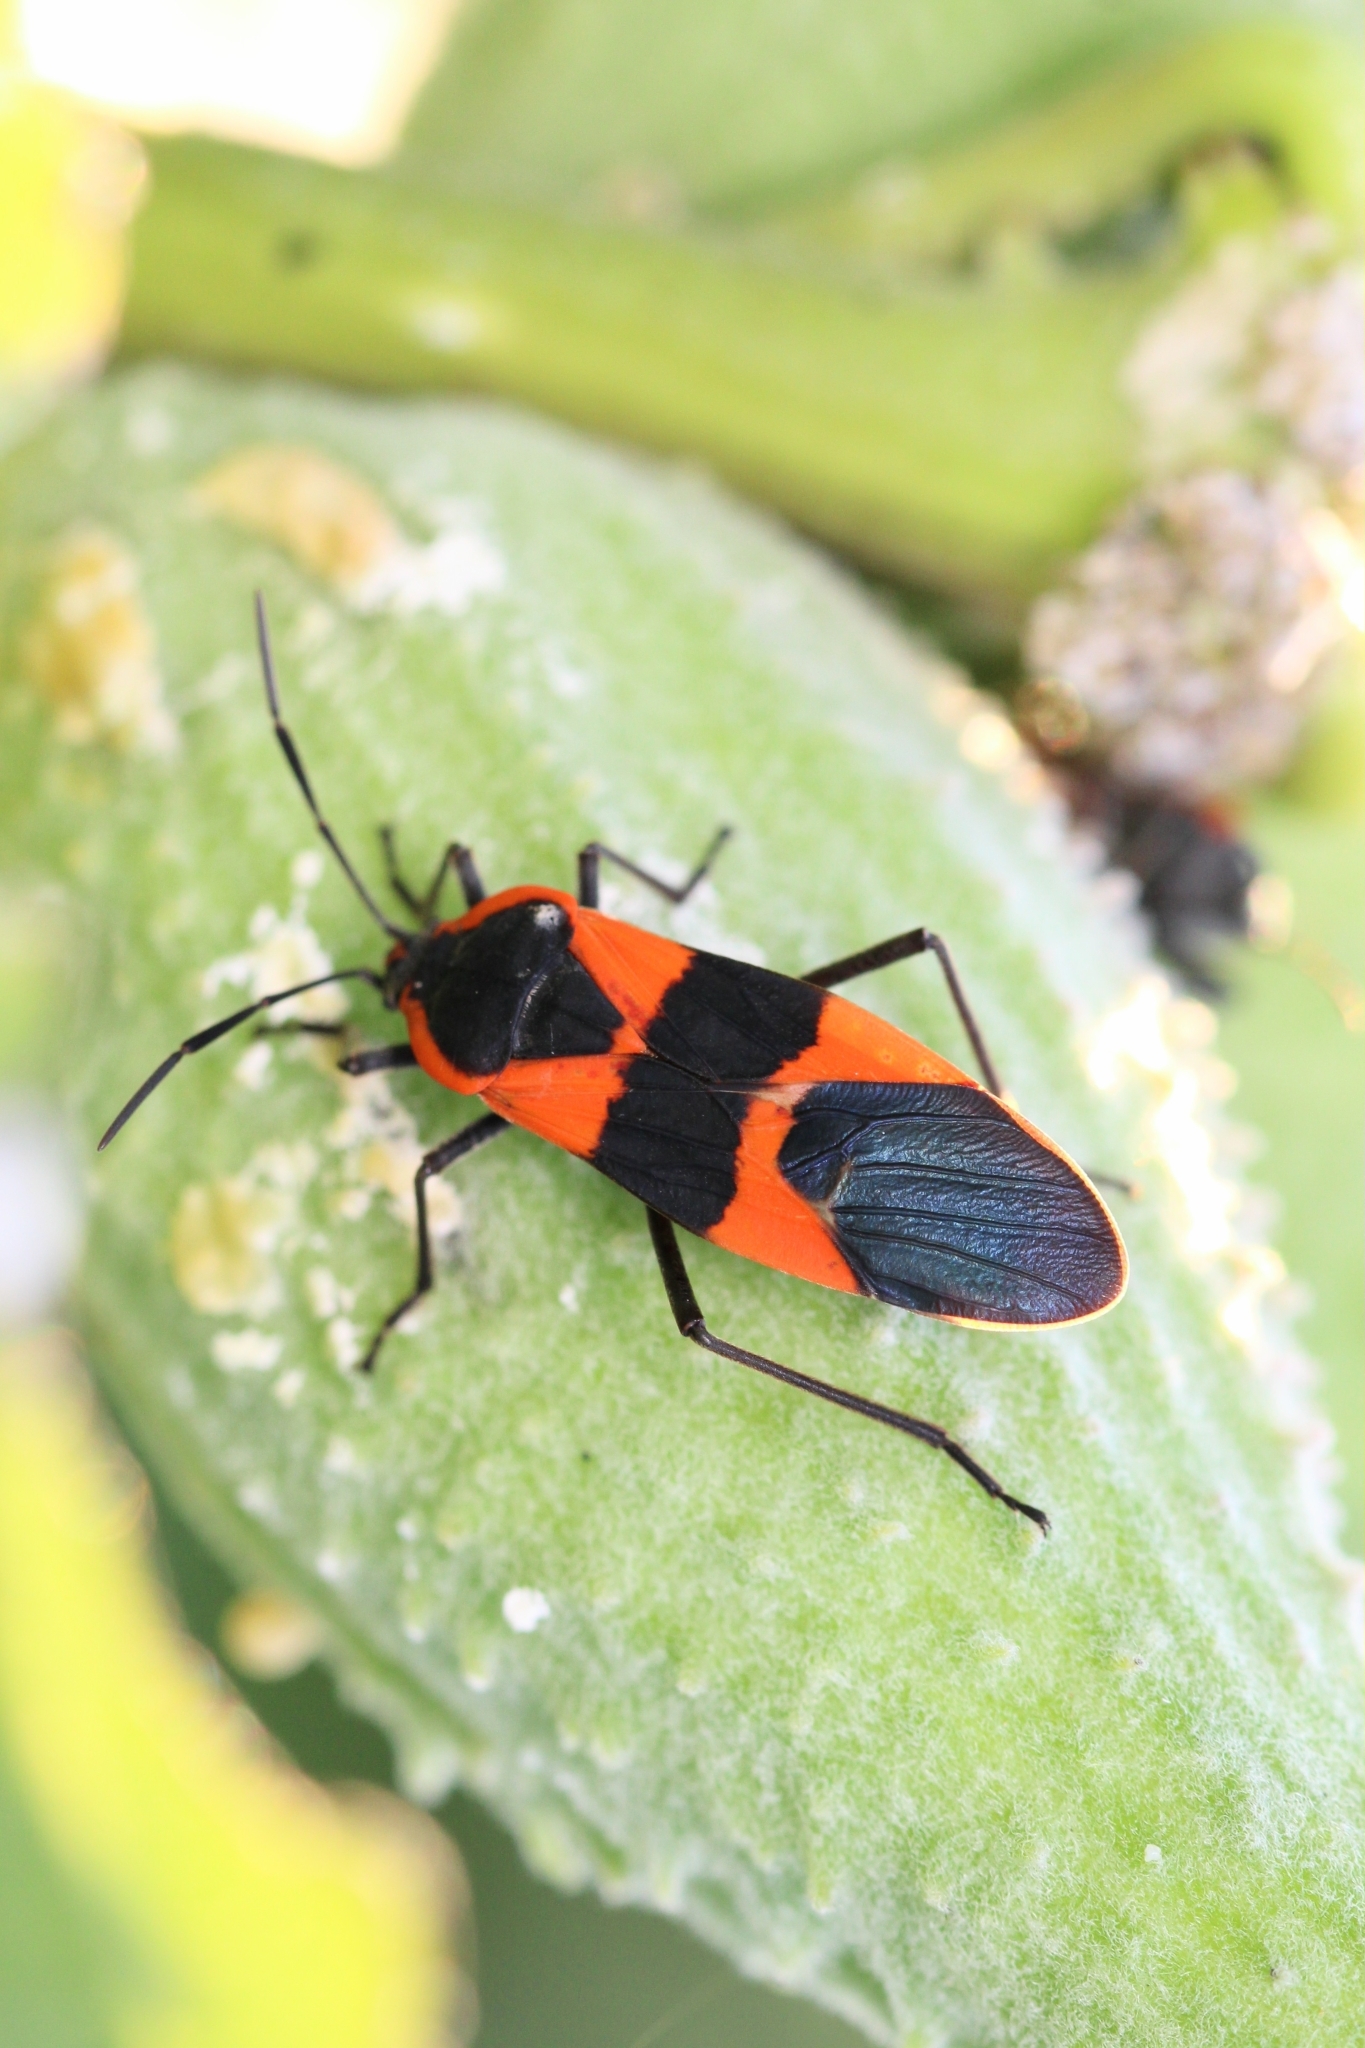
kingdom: Animalia
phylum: Arthropoda
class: Insecta
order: Hemiptera
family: Lygaeidae
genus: Oncopeltus
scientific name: Oncopeltus fasciatus
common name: Large milkweed bug
